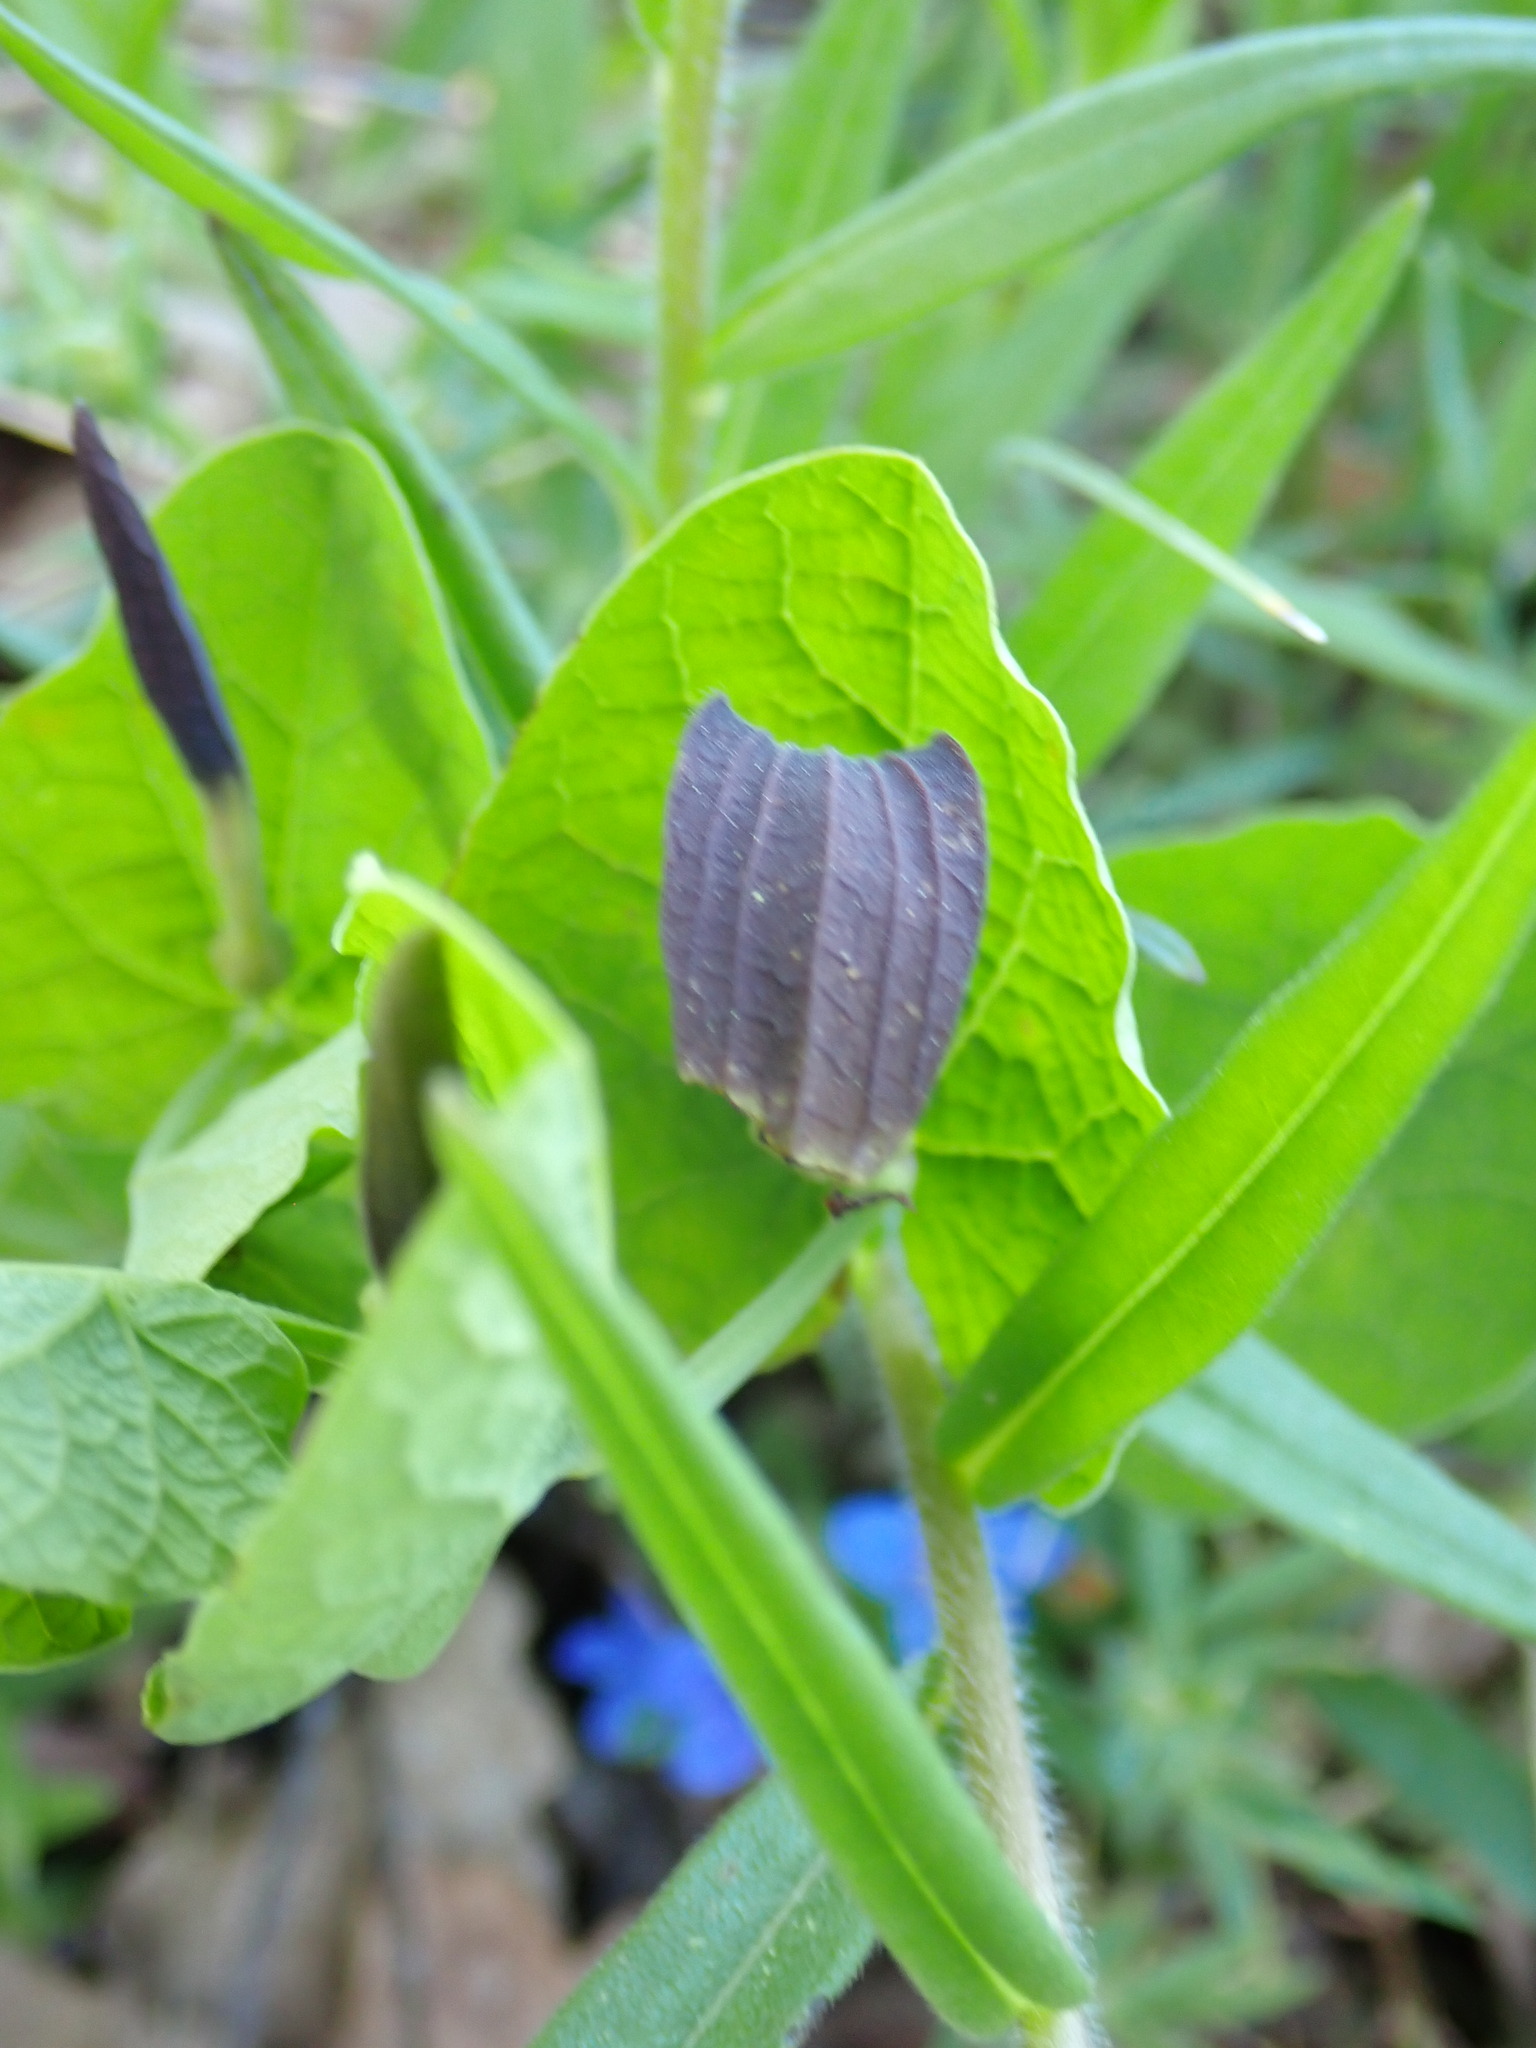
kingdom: Plantae
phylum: Tracheophyta
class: Magnoliopsida
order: Piperales
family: Aristolochiaceae
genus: Aristolochia
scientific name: Aristolochia rotunda
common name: Smearwort
